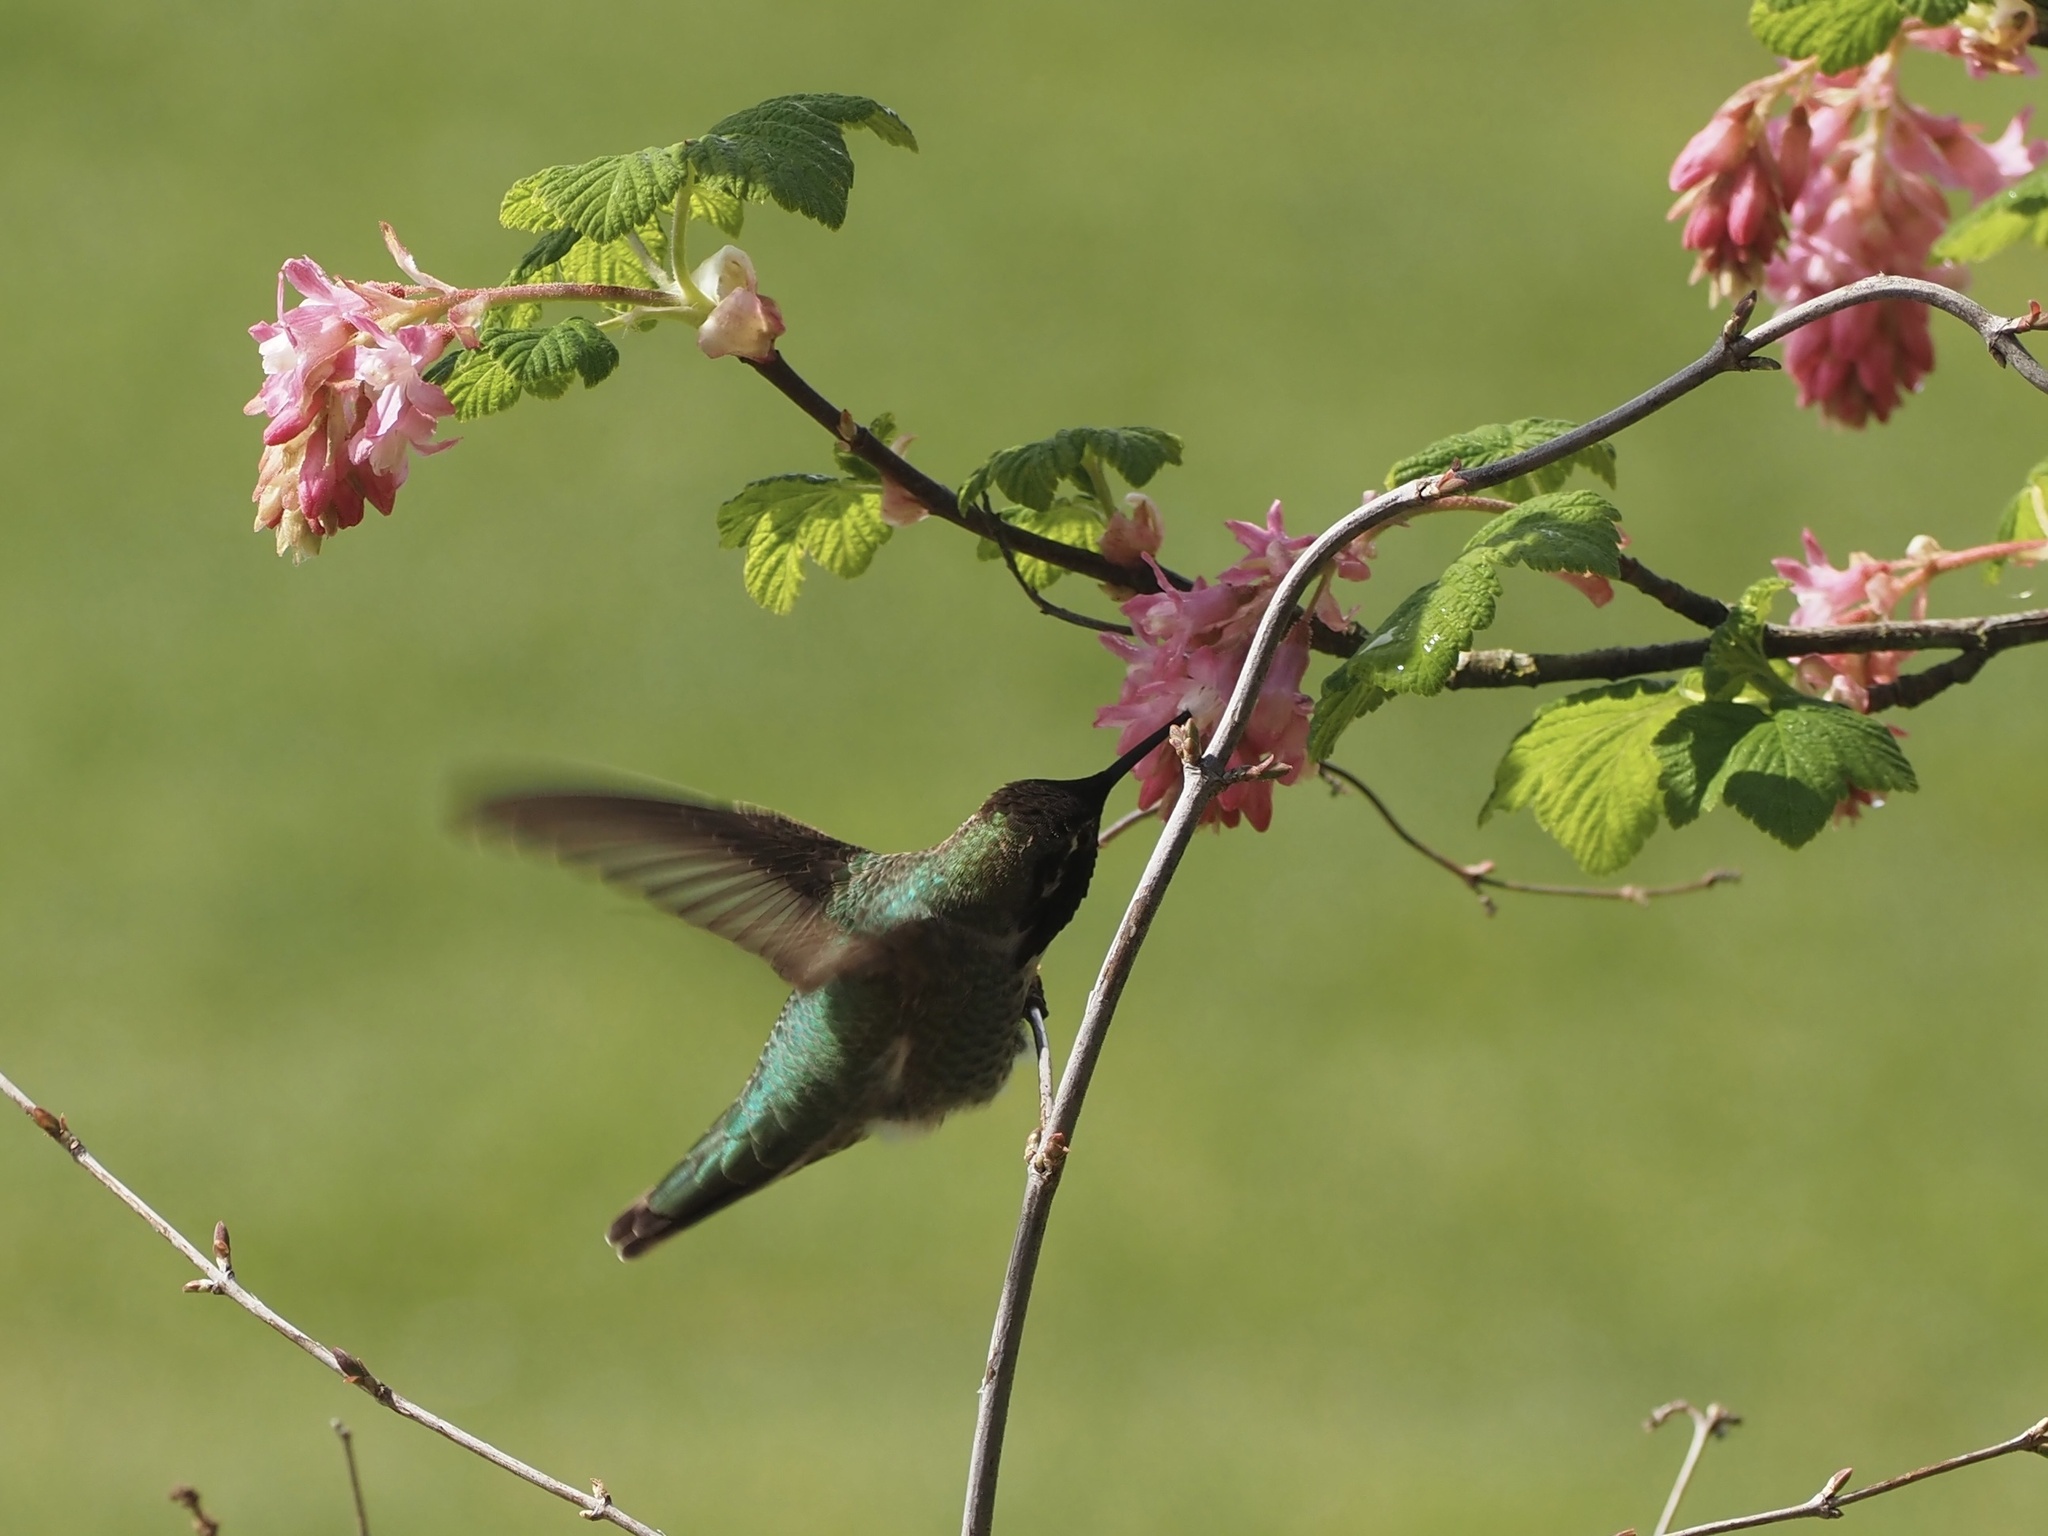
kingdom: Animalia
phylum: Chordata
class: Aves
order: Apodiformes
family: Trochilidae
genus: Calypte
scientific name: Calypte anna
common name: Anna's hummingbird
